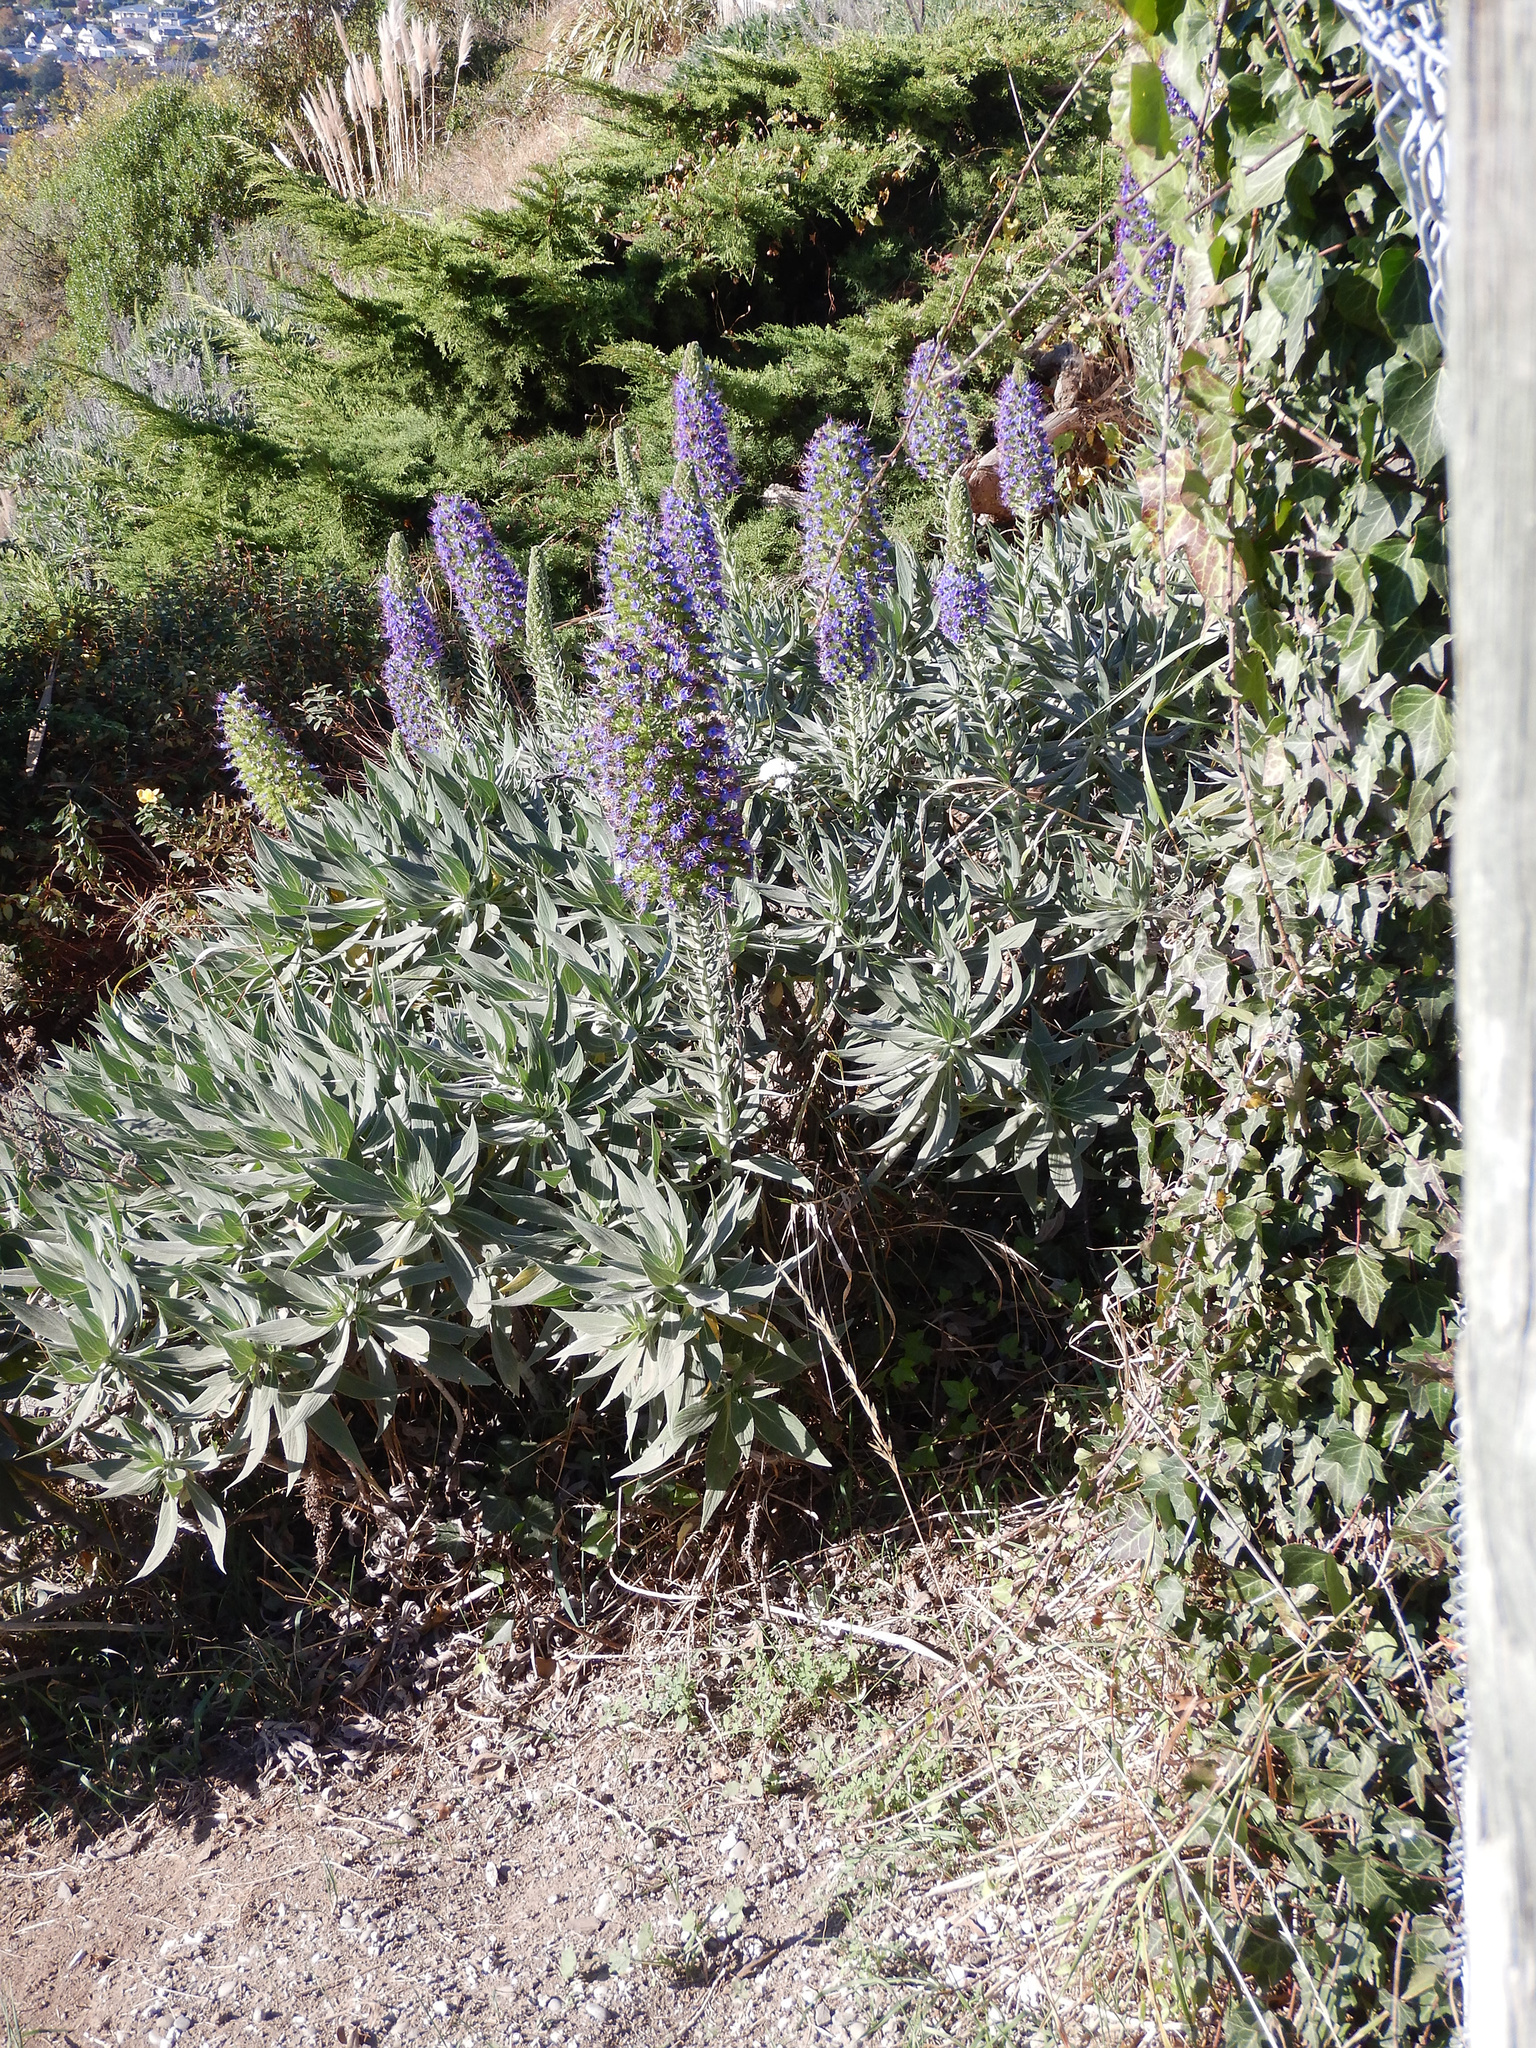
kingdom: Plantae
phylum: Tracheophyta
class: Magnoliopsida
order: Boraginales
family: Boraginaceae
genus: Echium
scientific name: Echium candicans
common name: Pride of madeira
